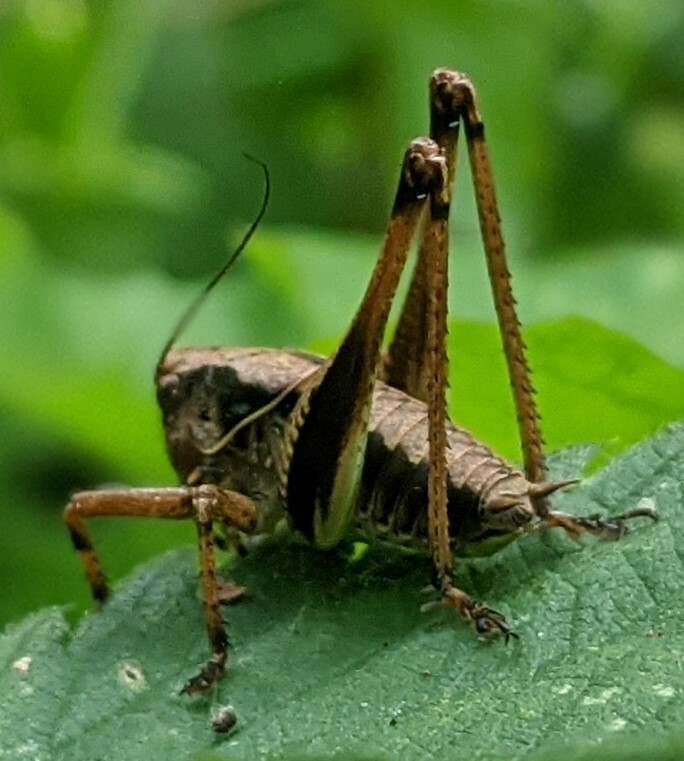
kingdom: Animalia
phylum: Arthropoda
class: Insecta
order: Orthoptera
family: Tettigoniidae
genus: Pholidoptera
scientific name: Pholidoptera griseoaptera
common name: Dark bush-cricket
